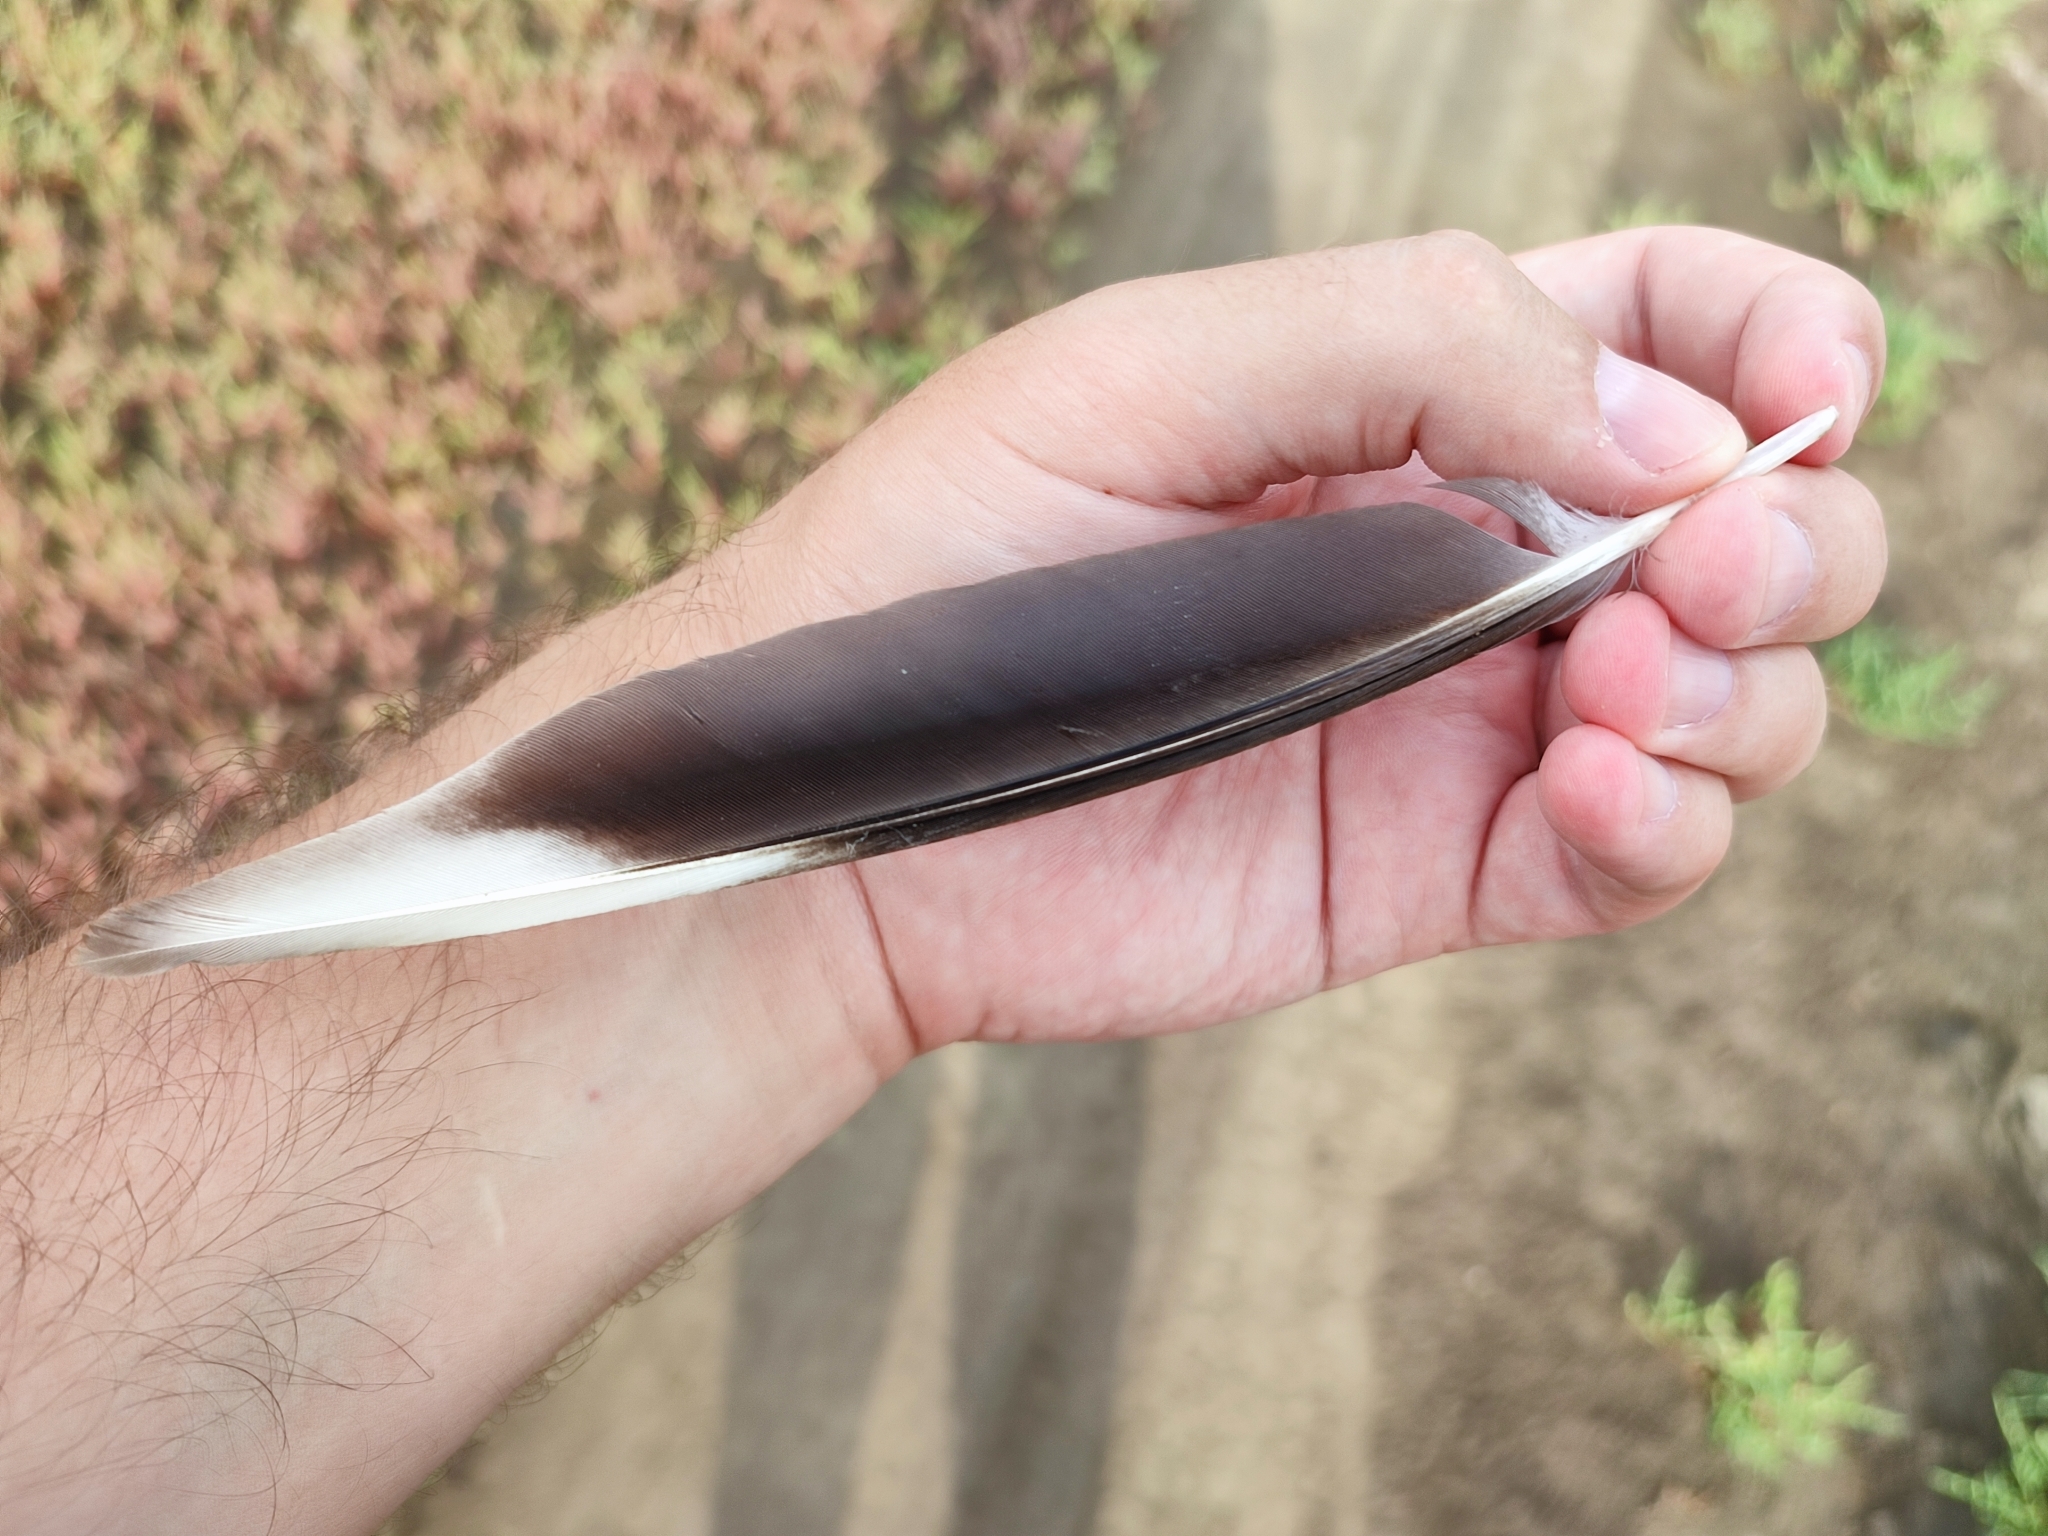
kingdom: Animalia
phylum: Chordata
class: Aves
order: Charadriiformes
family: Charadriidae
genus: Vanellus
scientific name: Vanellus vanellus
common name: Northern lapwing
